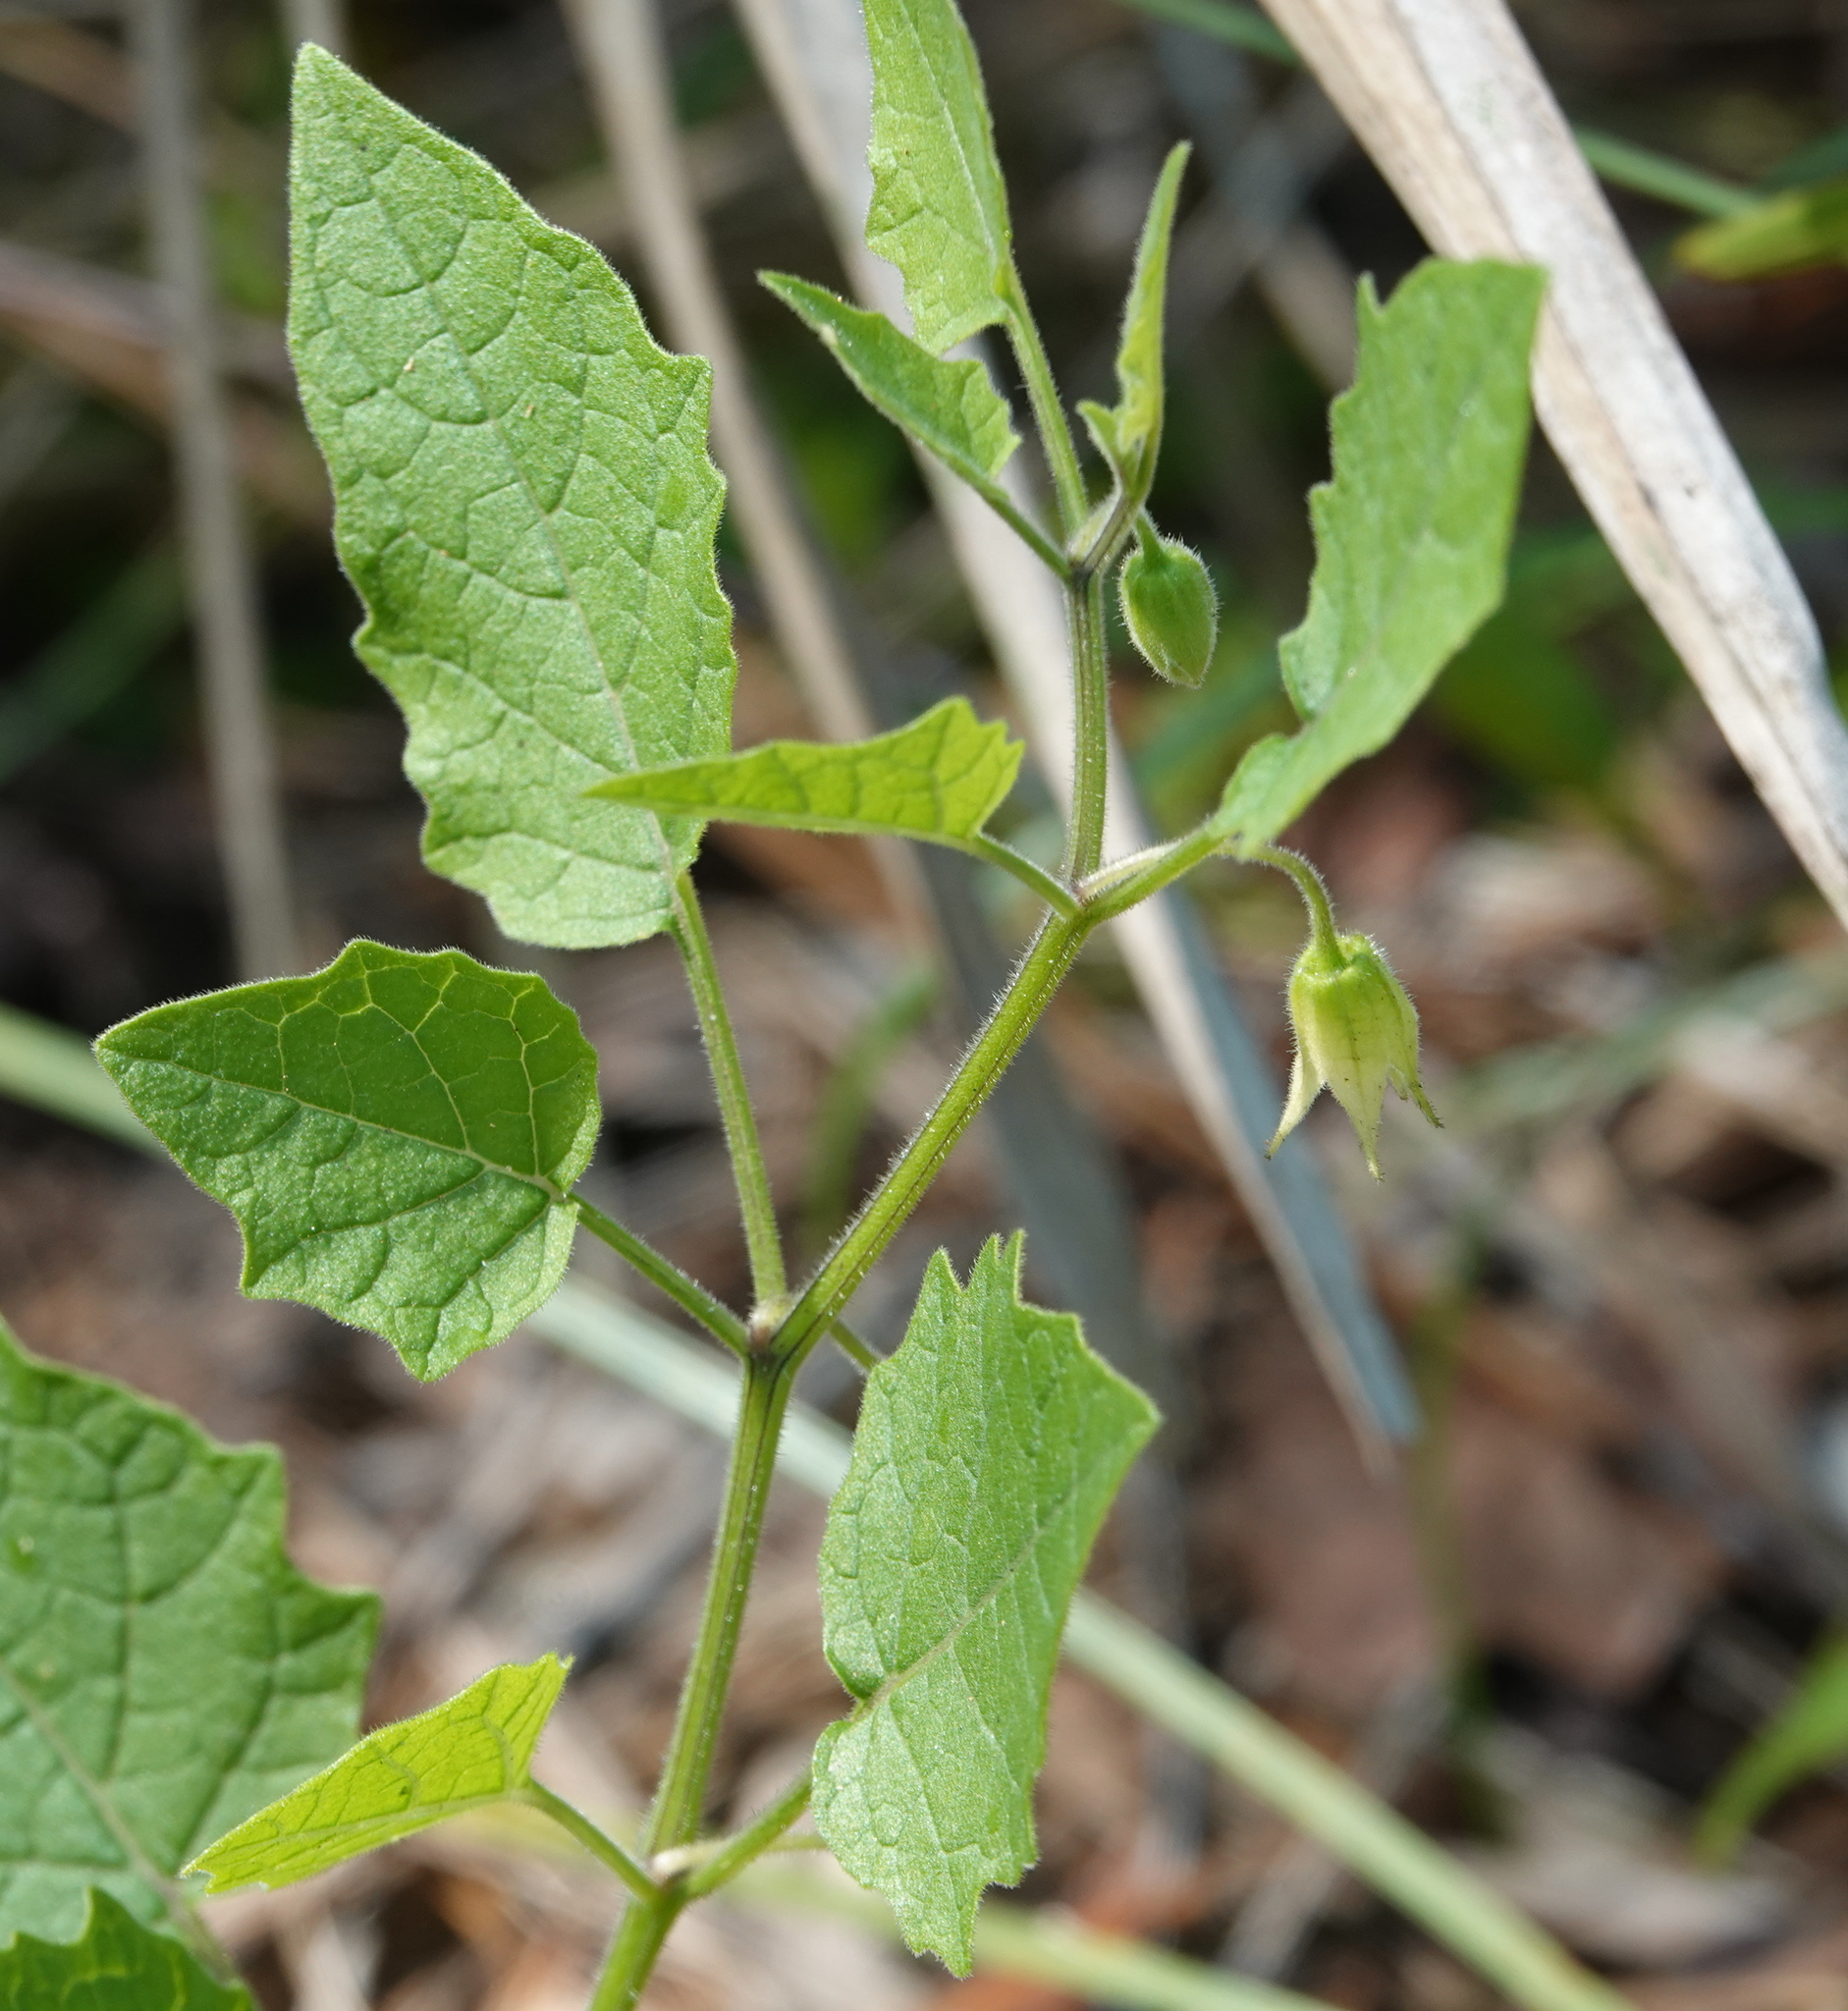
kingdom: Plantae
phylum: Tracheophyta
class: Magnoliopsida
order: Solanales
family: Solanaceae
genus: Physalis
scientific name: Physalis arenicola
